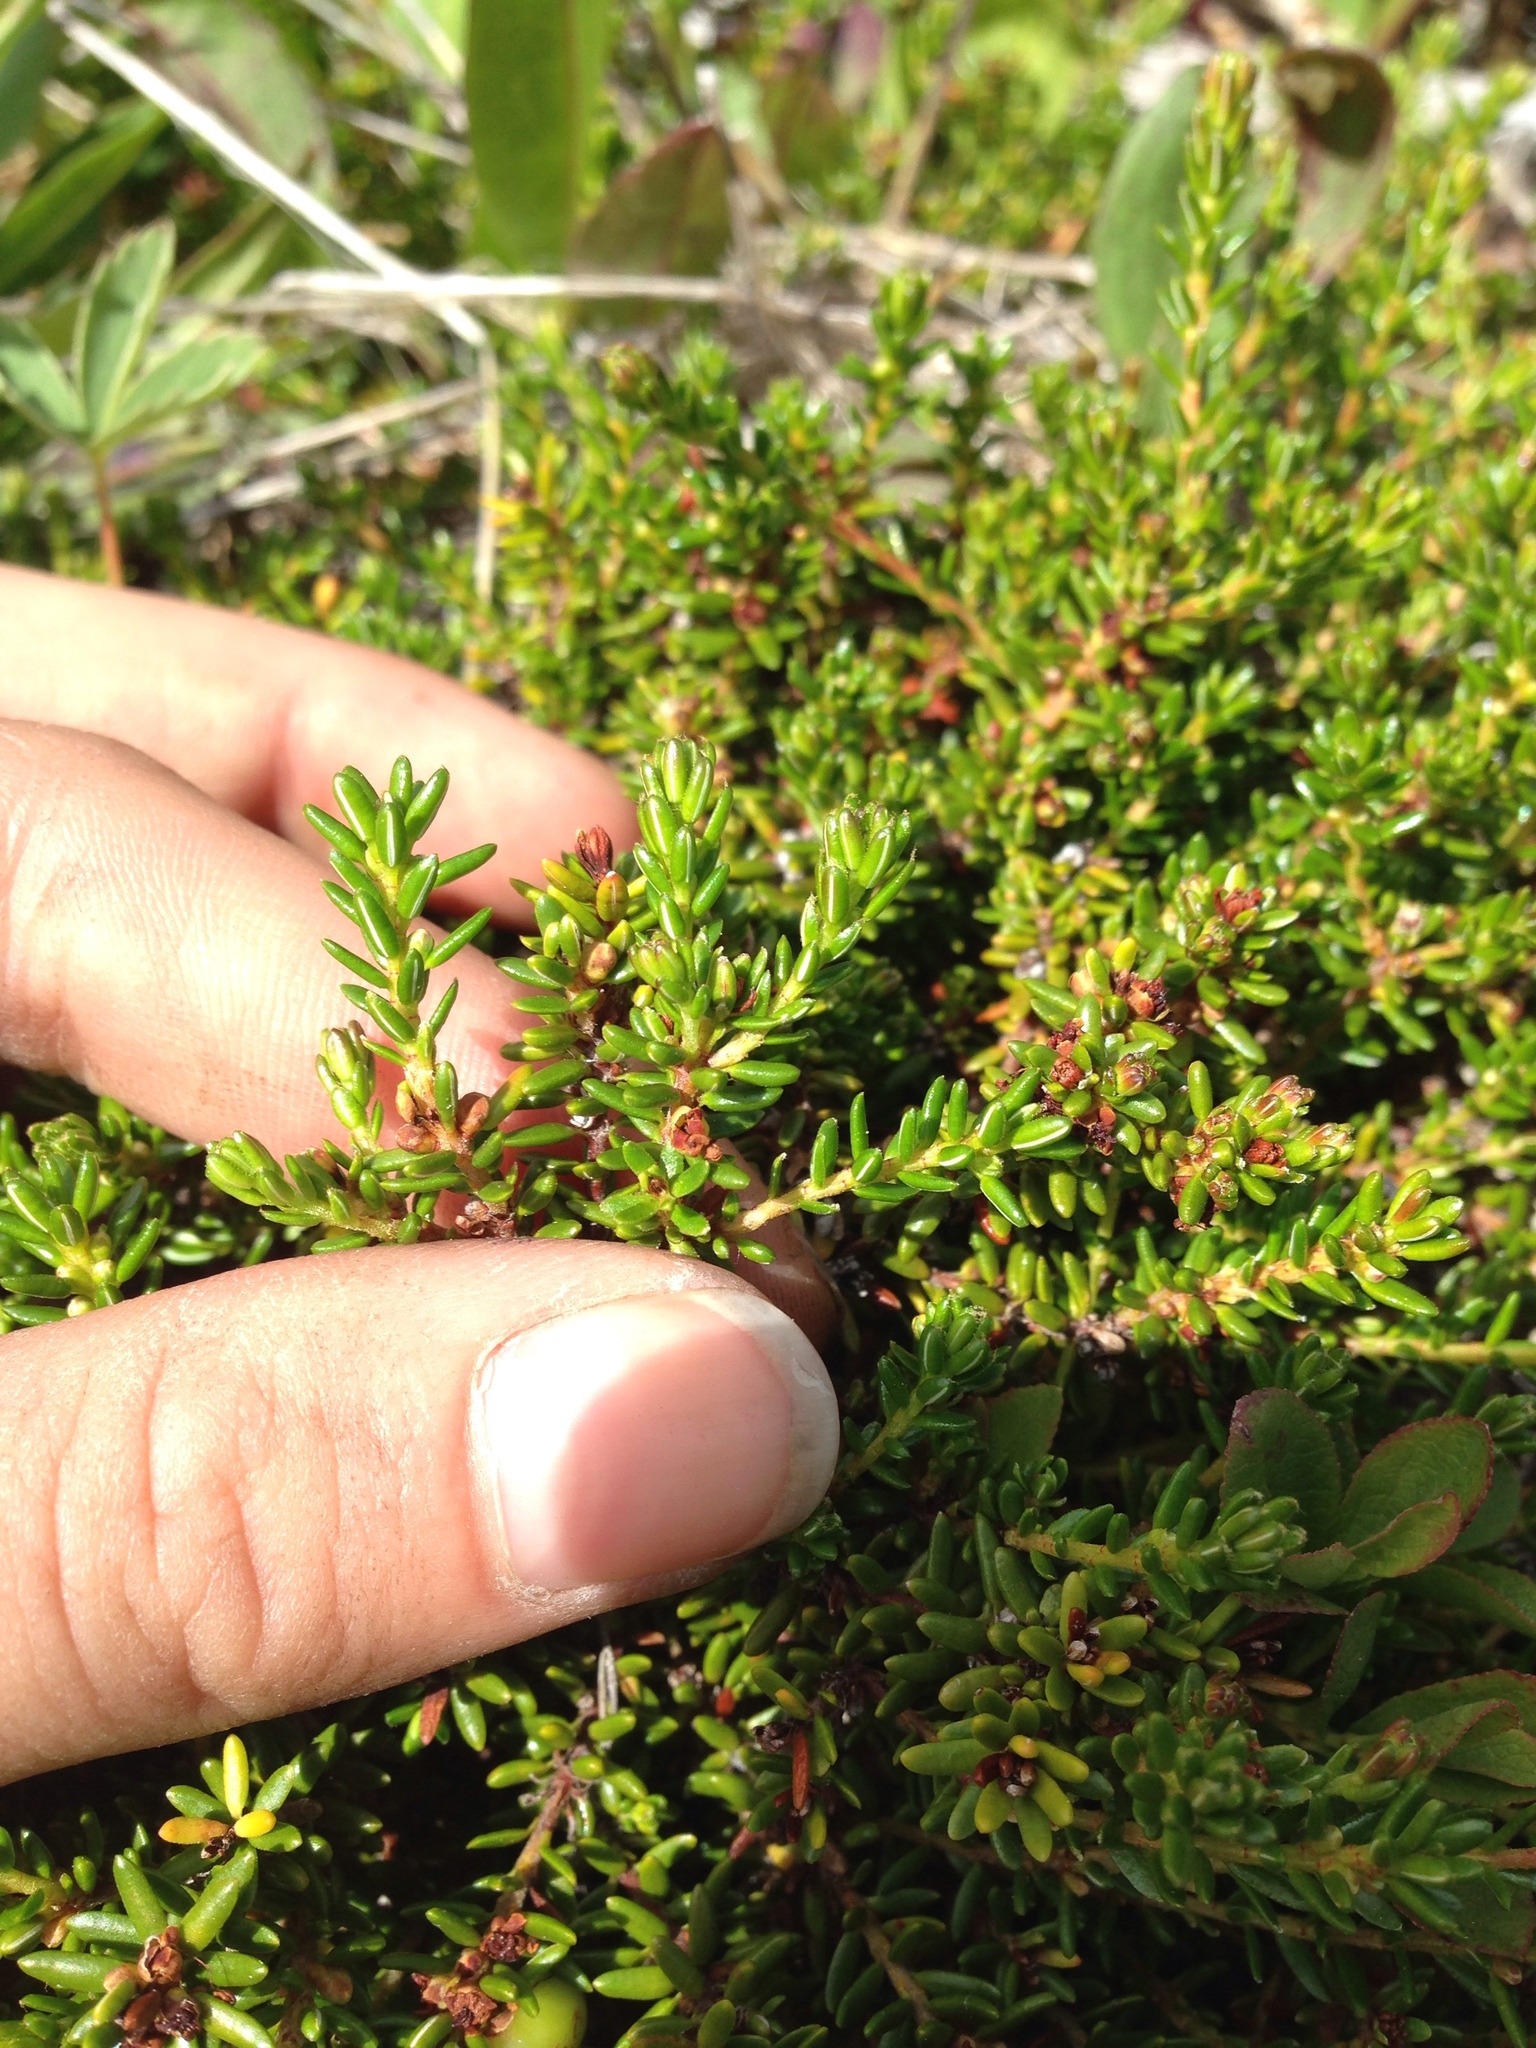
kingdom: Plantae
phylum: Tracheophyta
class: Magnoliopsida
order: Ericales
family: Ericaceae
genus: Empetrum
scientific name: Empetrum nigrum
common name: Black crowberry
